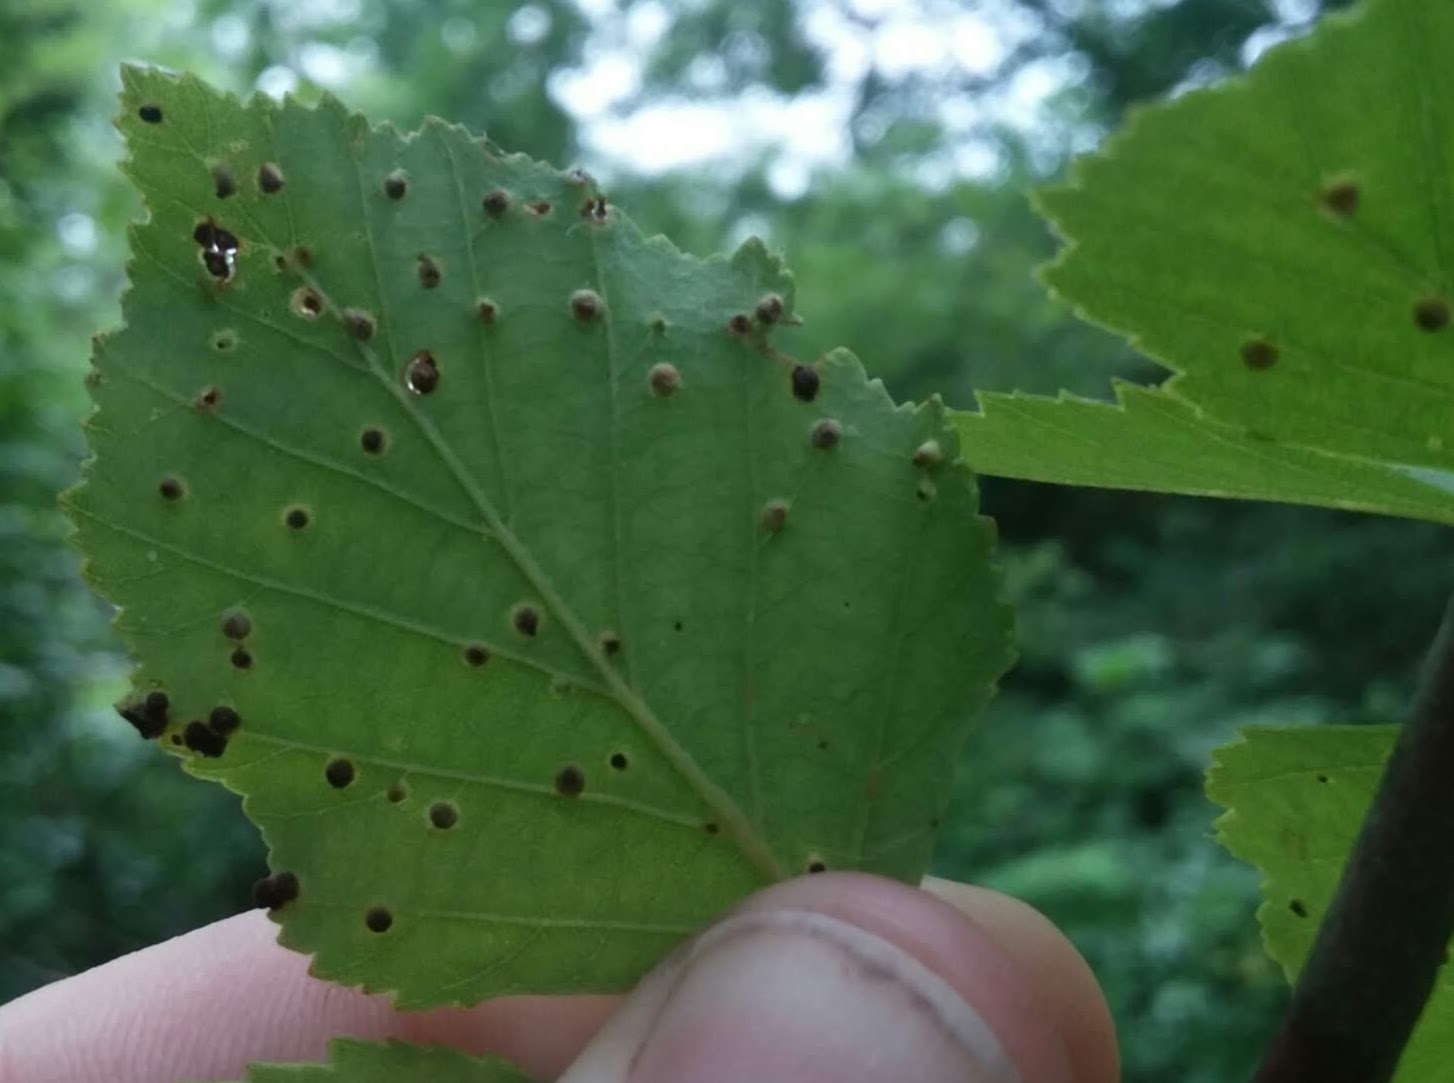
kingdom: Animalia
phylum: Arthropoda
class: Arachnida
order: Trombidiformes
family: Eriophyidae
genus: Aculus
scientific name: Aculus leionotus
